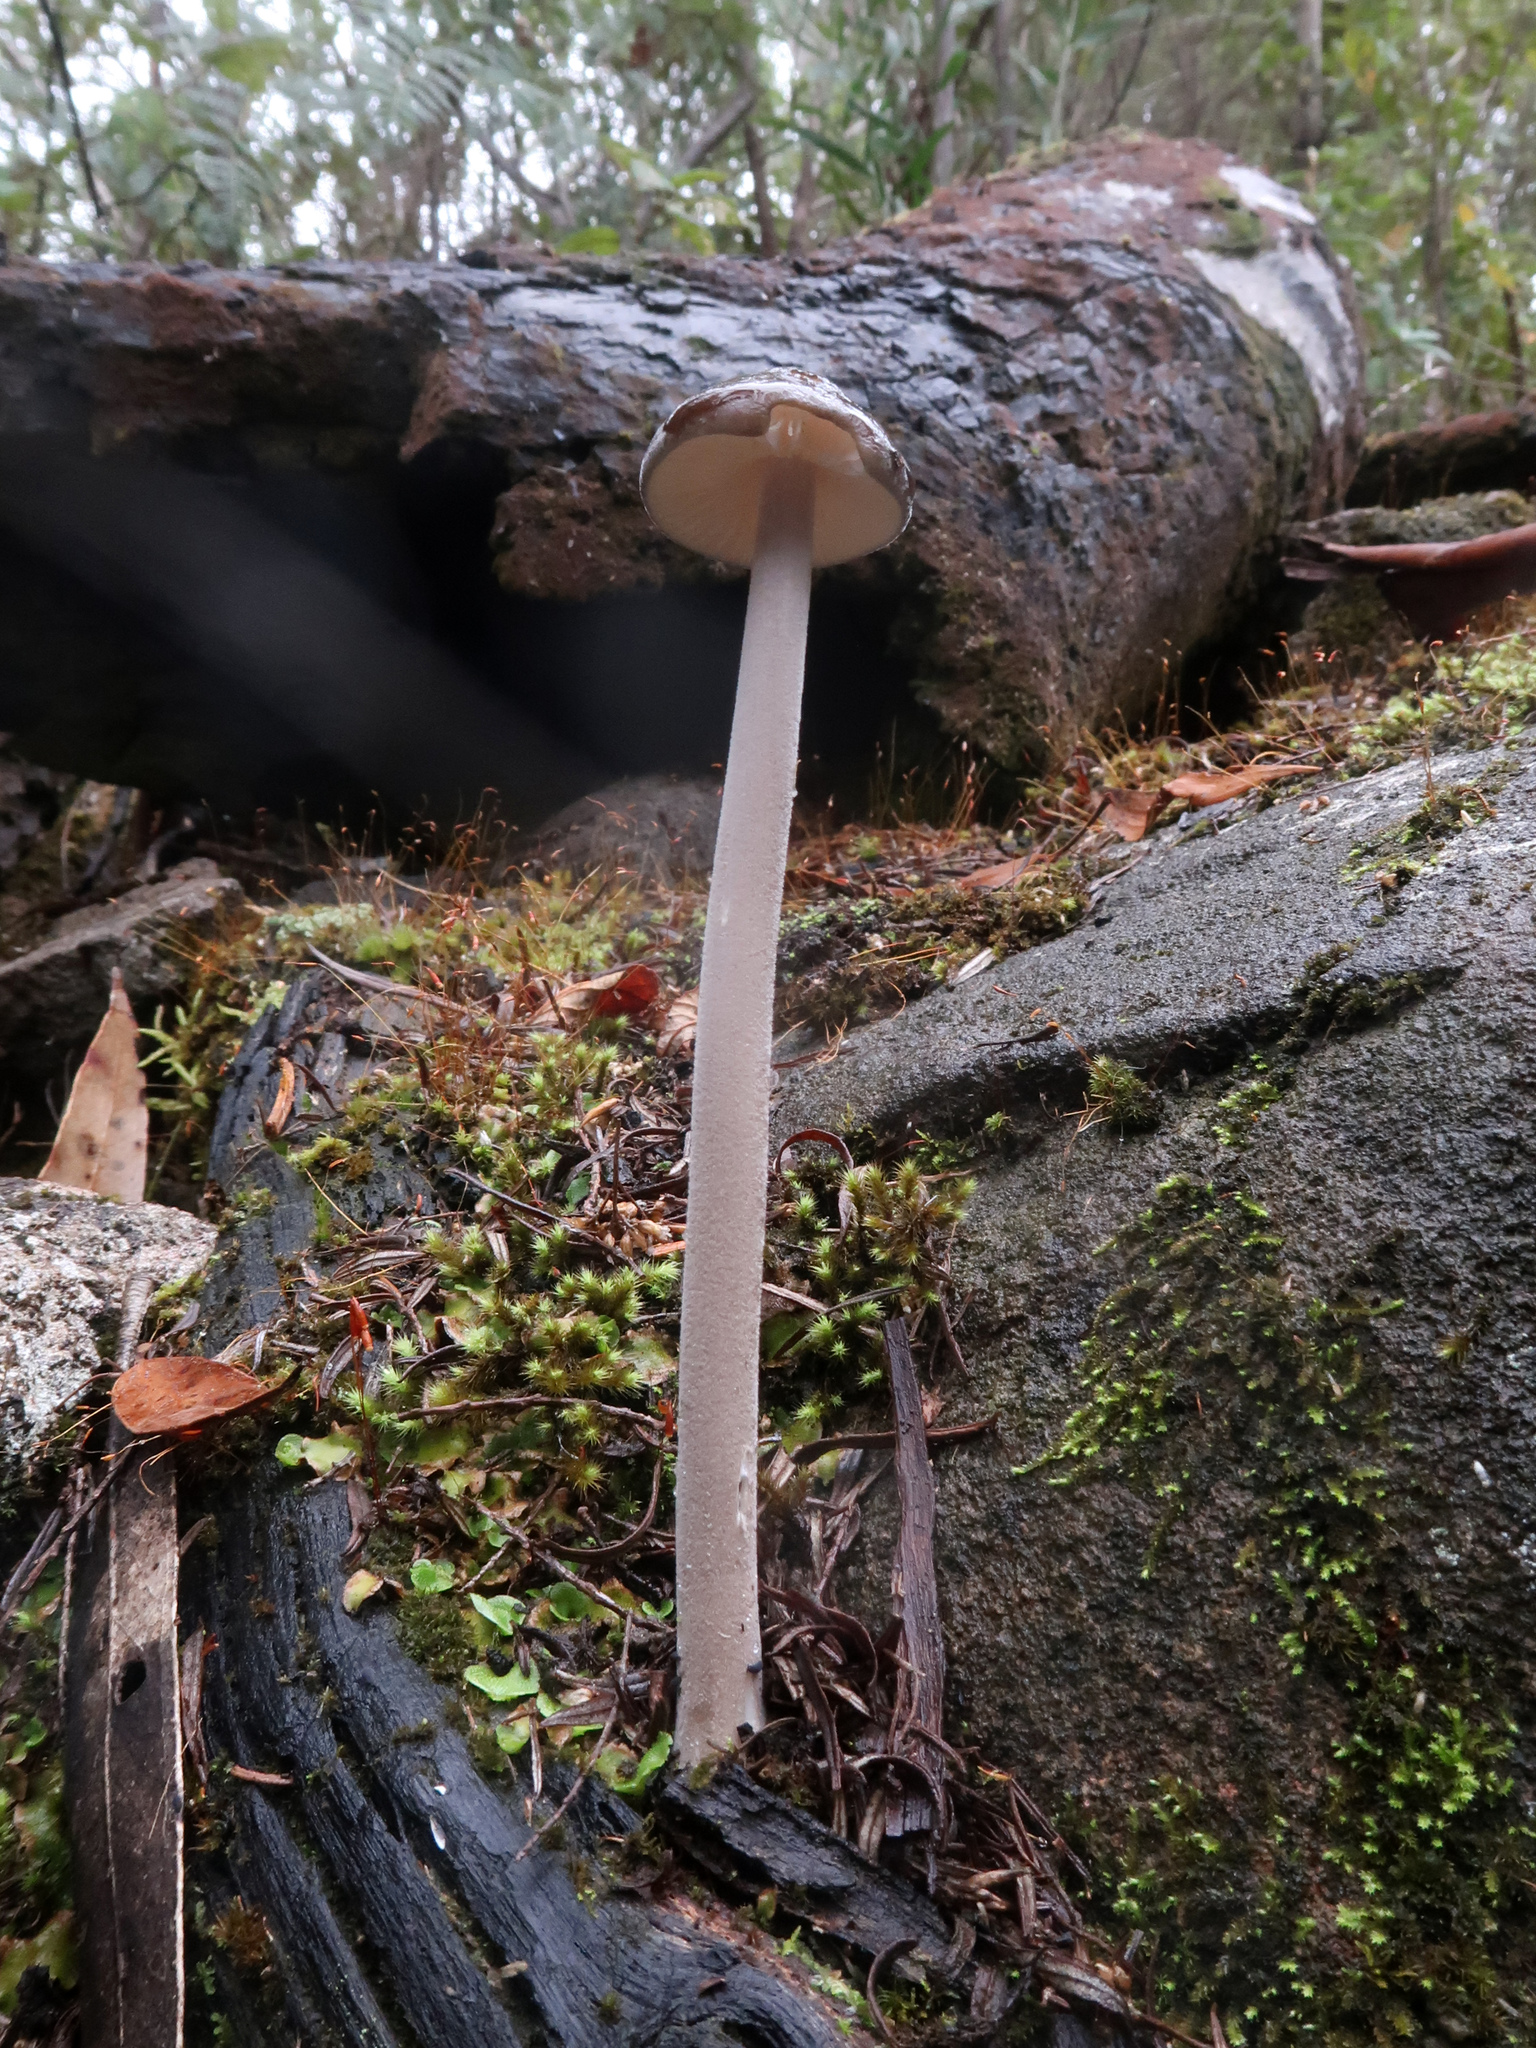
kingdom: Fungi
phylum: Basidiomycota
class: Agaricomycetes
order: Agaricales
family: Physalacriaceae
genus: Hymenopellis
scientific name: Hymenopellis gigaspora
